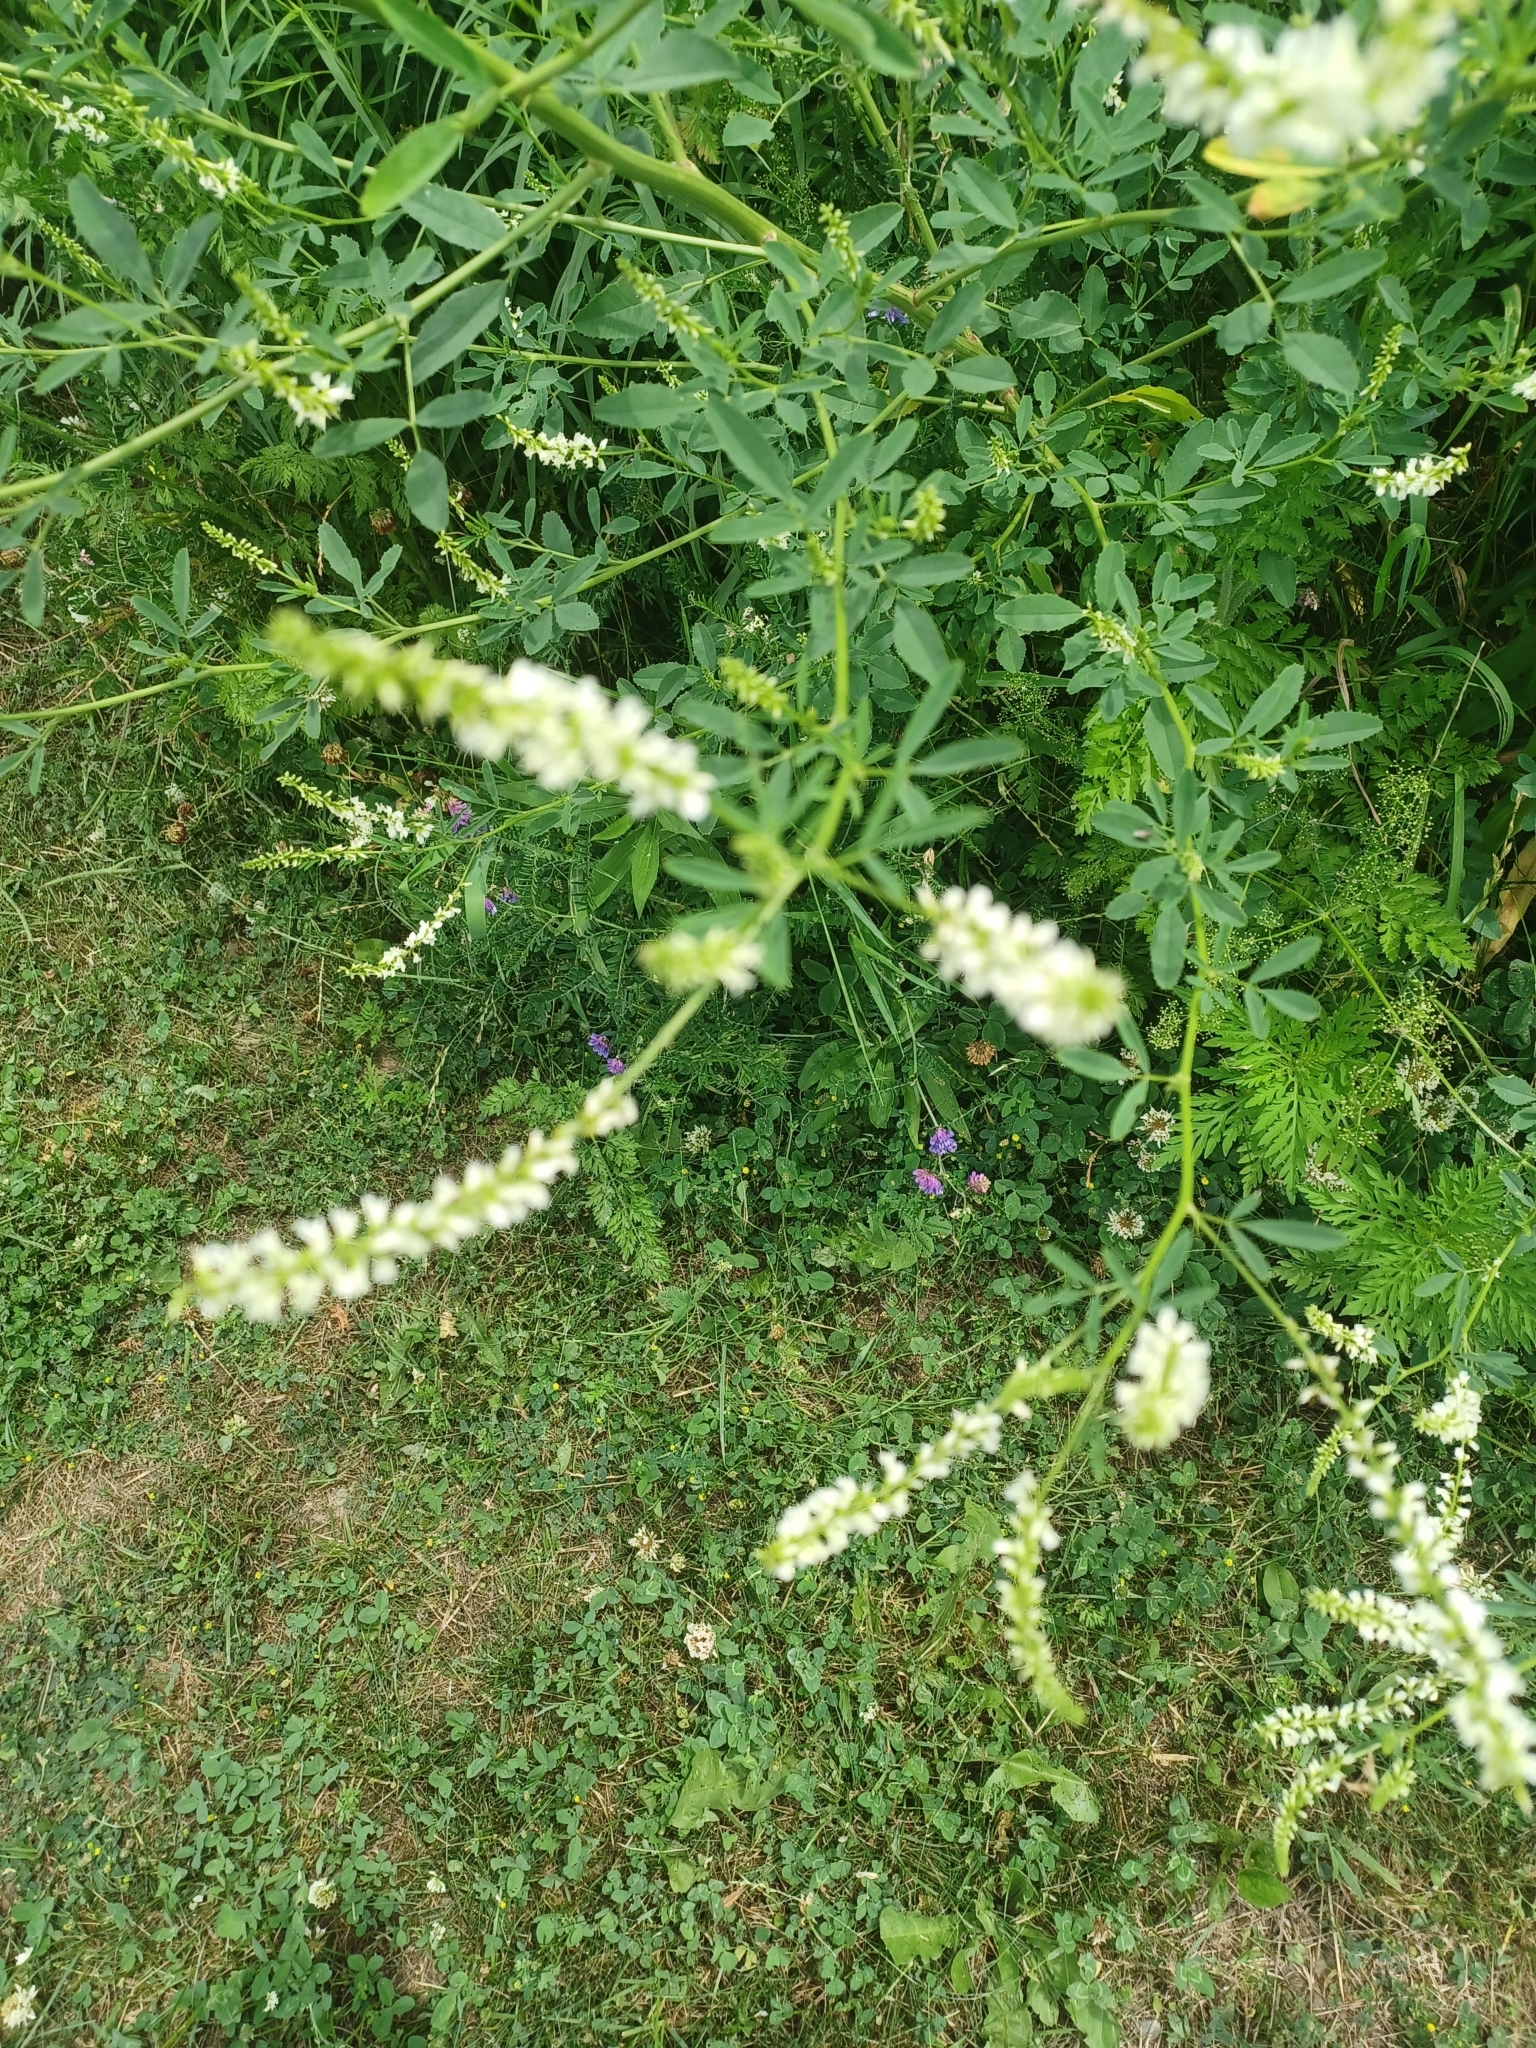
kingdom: Plantae
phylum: Tracheophyta
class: Magnoliopsida
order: Fabales
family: Fabaceae
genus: Melilotus
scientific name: Melilotus albus
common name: White melilot
